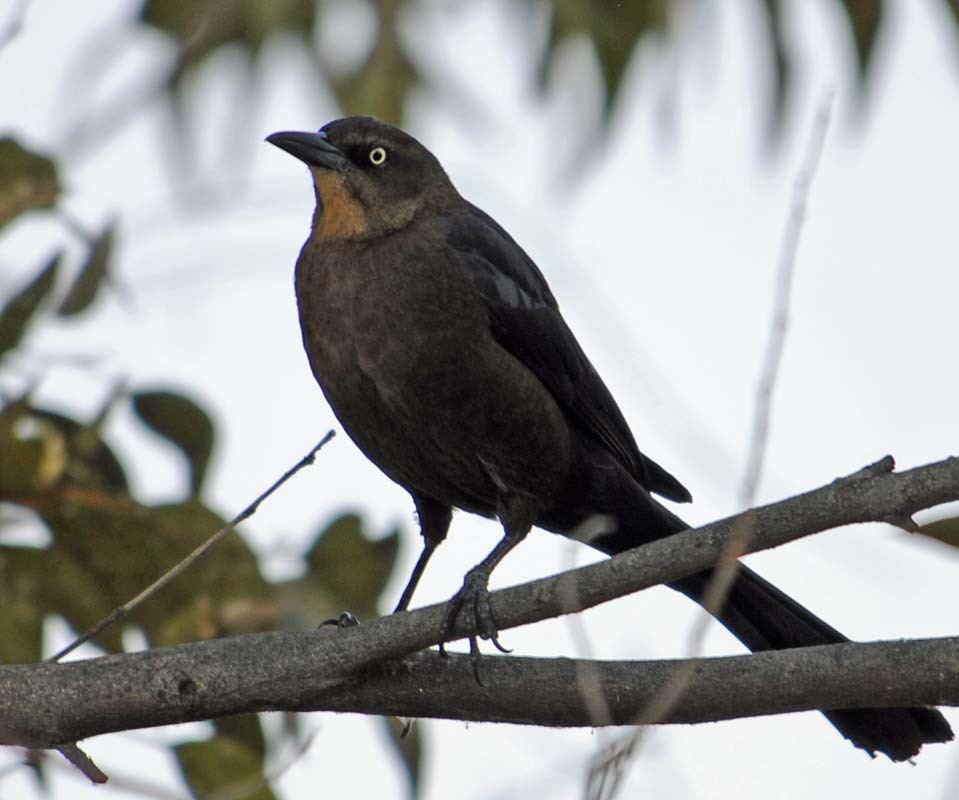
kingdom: Animalia
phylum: Chordata
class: Aves
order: Passeriformes
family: Icteridae
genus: Quiscalus
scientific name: Quiscalus mexicanus
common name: Great-tailed grackle
